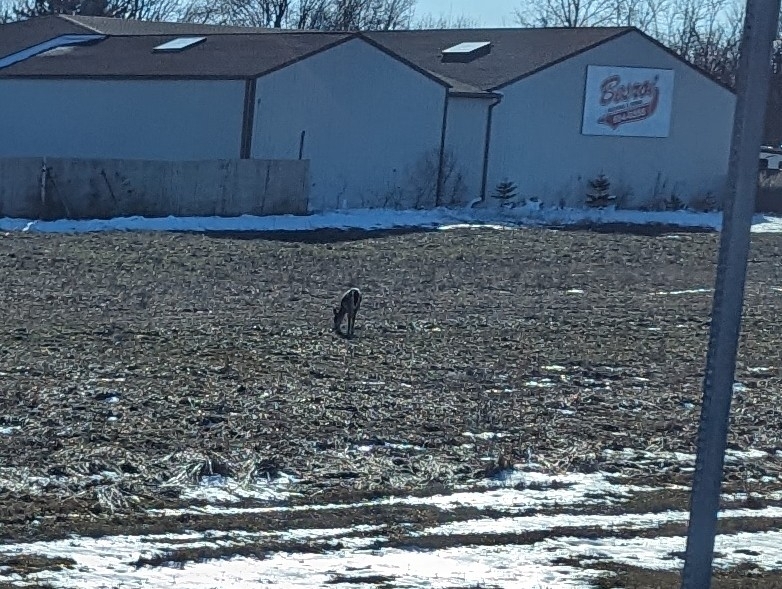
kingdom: Animalia
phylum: Chordata
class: Mammalia
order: Artiodactyla
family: Cervidae
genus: Odocoileus
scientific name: Odocoileus virginianus
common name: White-tailed deer
